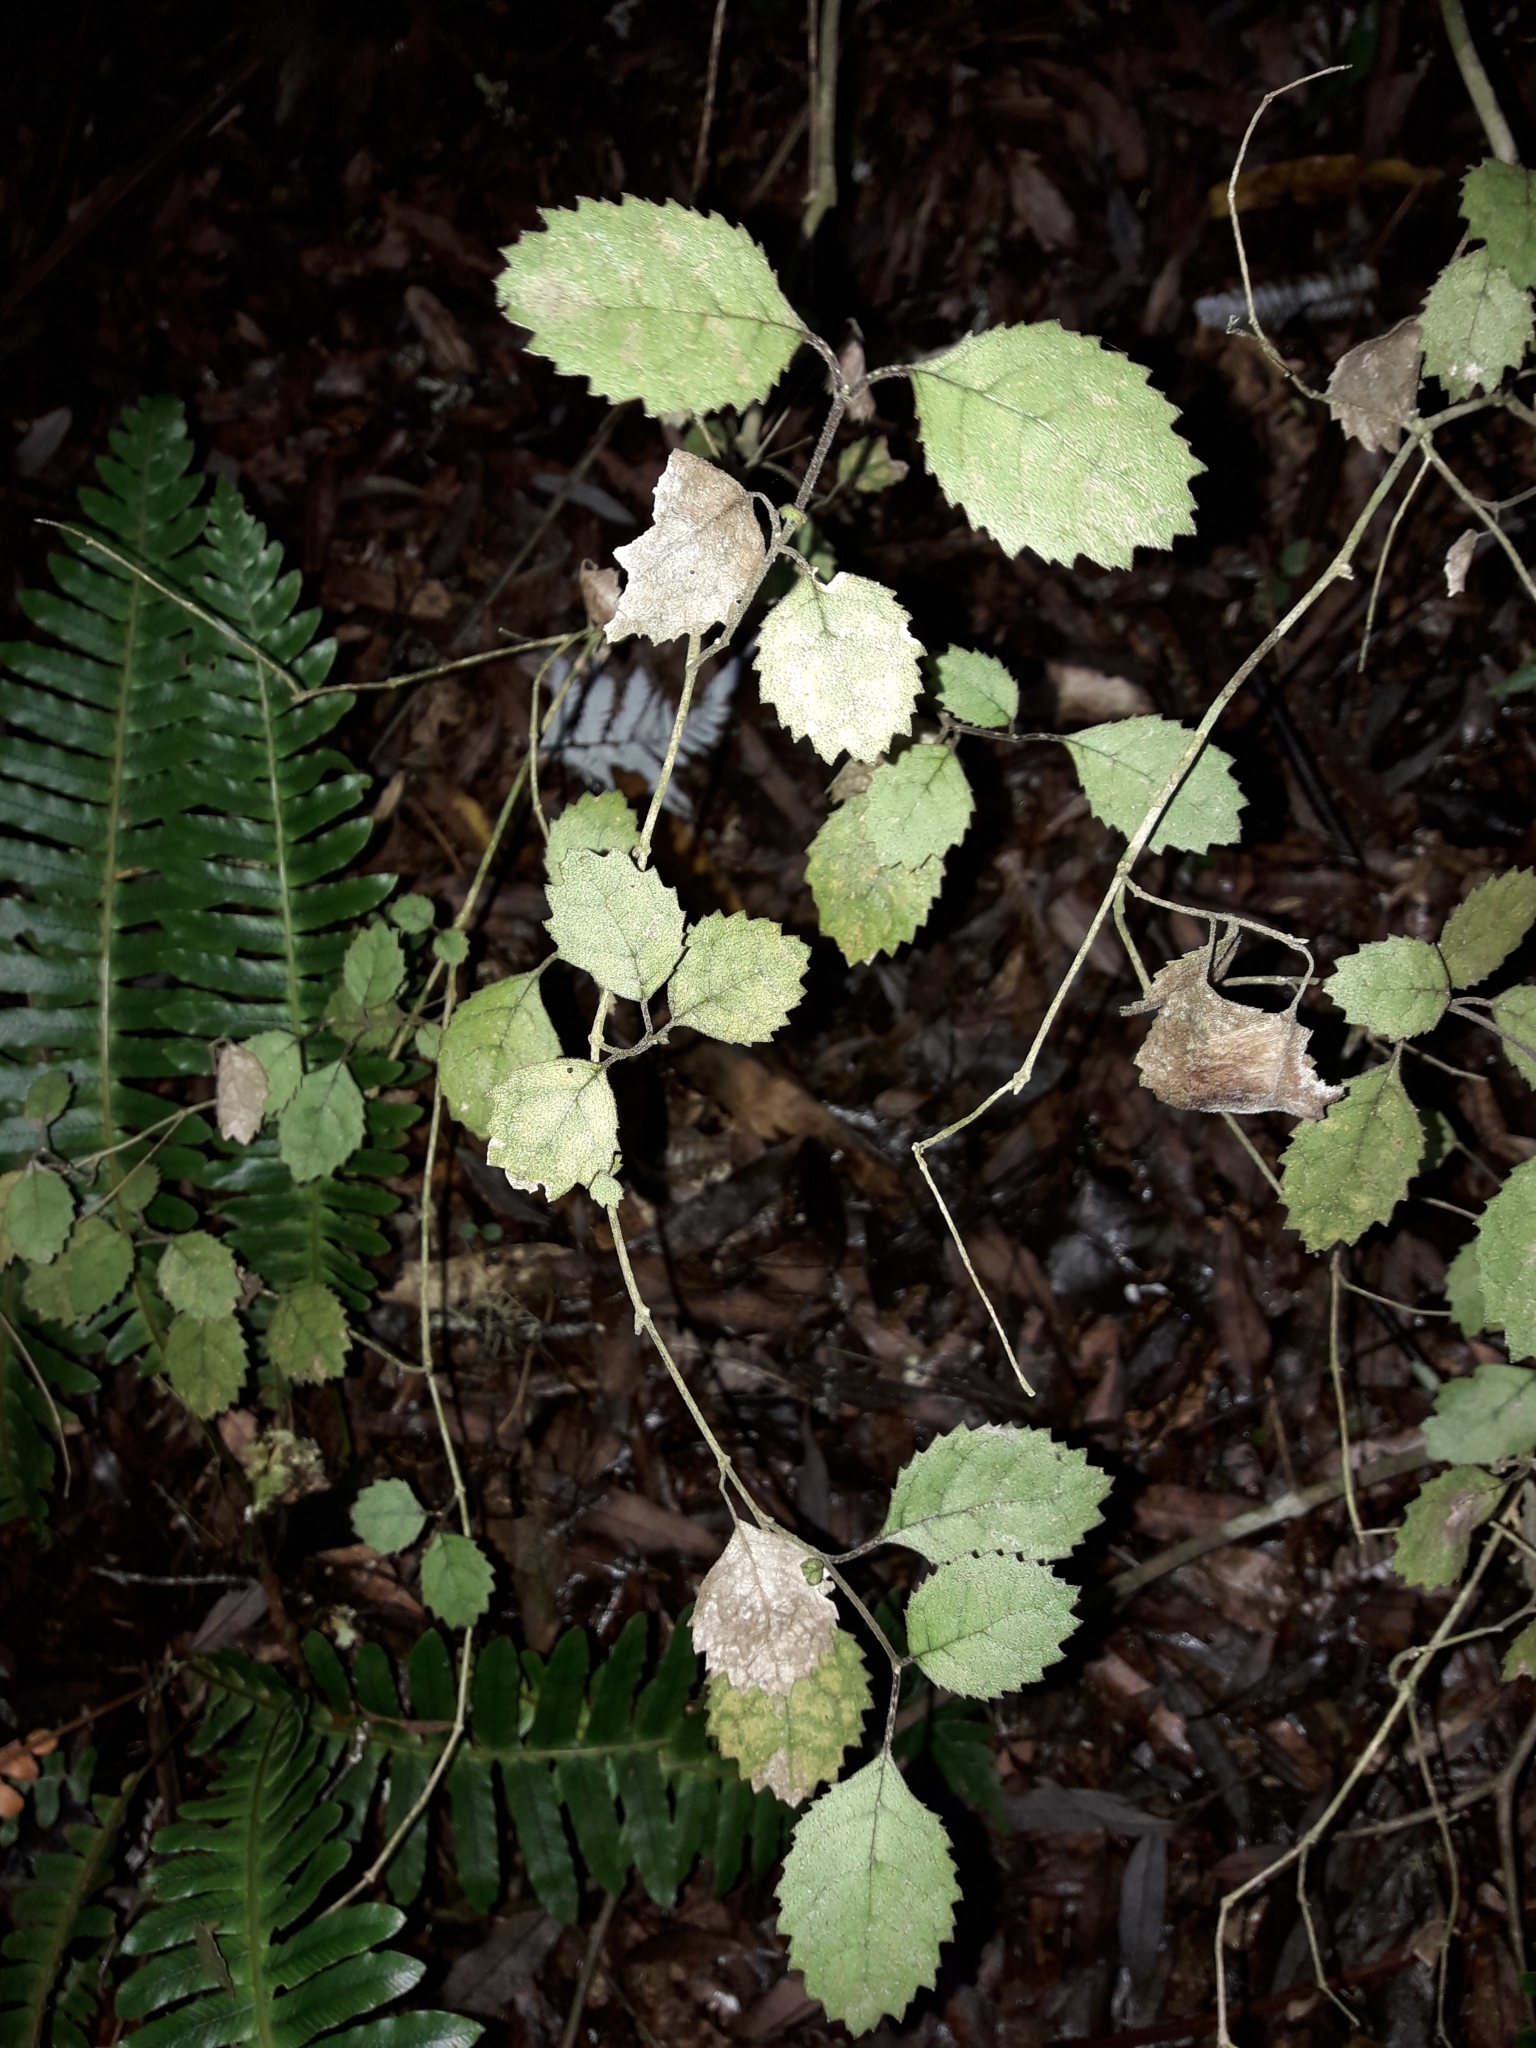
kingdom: Plantae
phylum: Tracheophyta
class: Magnoliopsida
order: Lamiales
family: Gesneriaceae
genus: Rhabdothamnus
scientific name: Rhabdothamnus solandri
